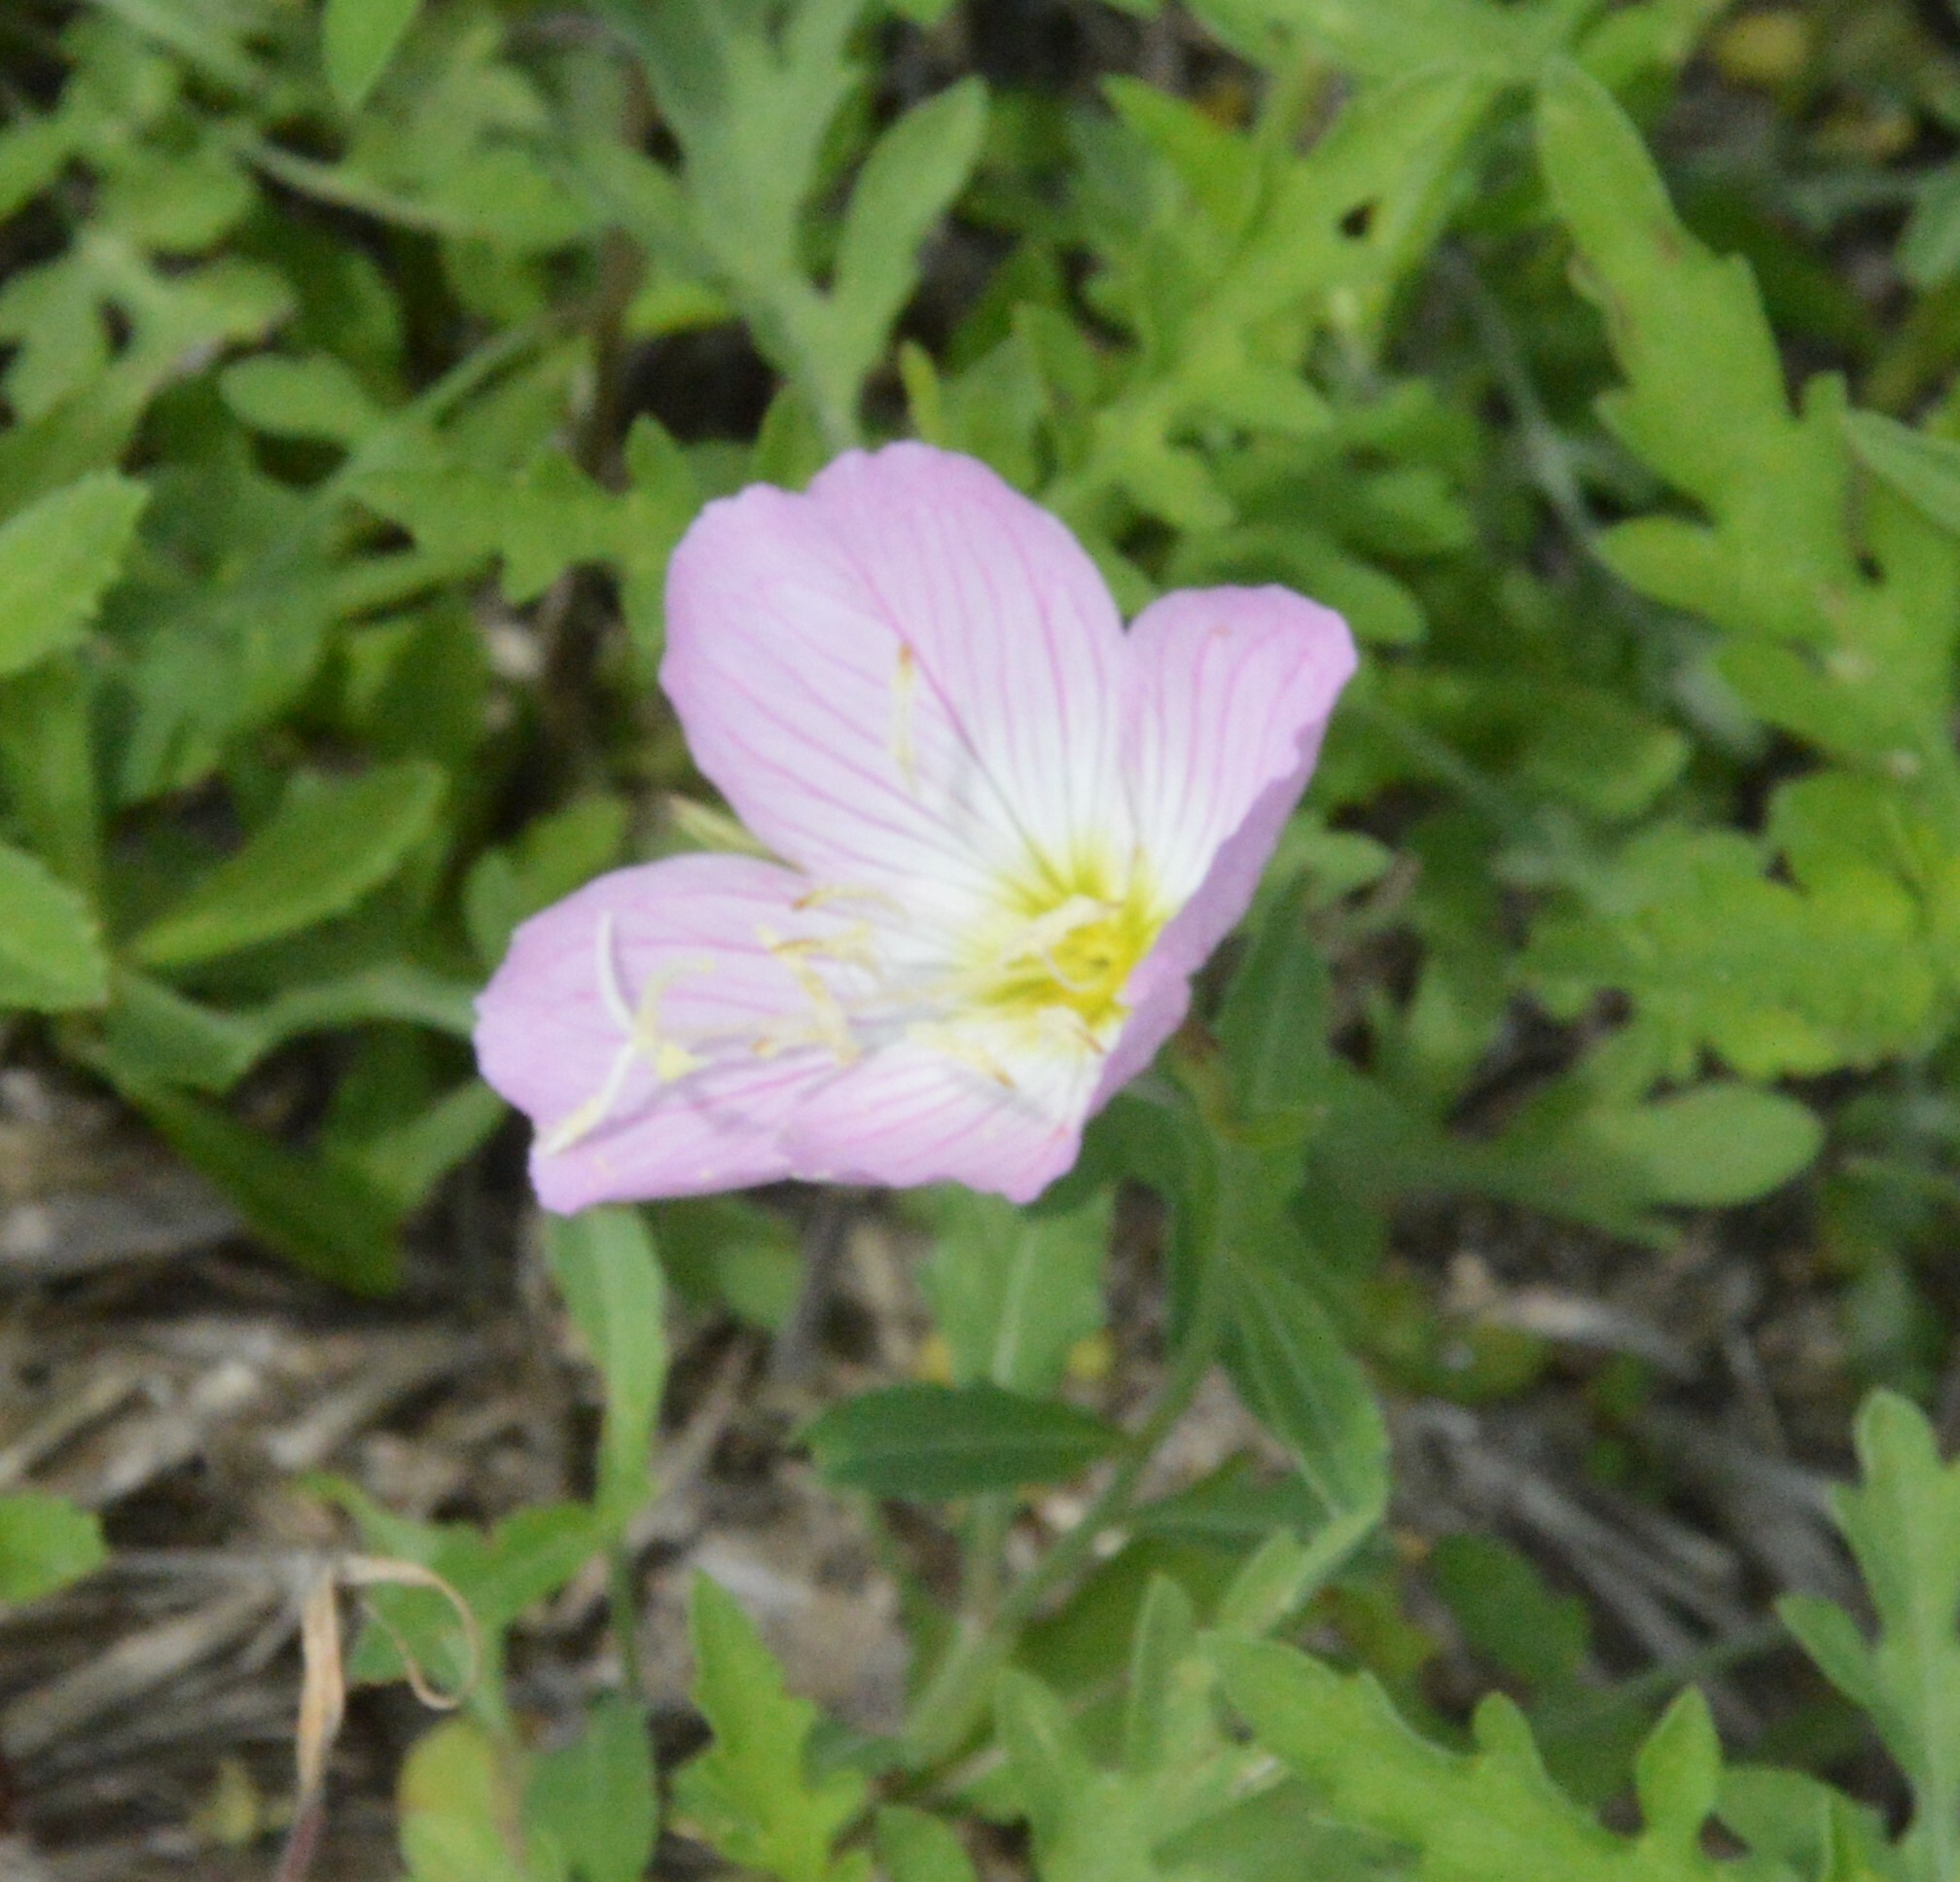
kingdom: Plantae
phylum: Tracheophyta
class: Magnoliopsida
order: Myrtales
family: Onagraceae
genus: Oenothera
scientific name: Oenothera speciosa
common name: White evening-primrose
